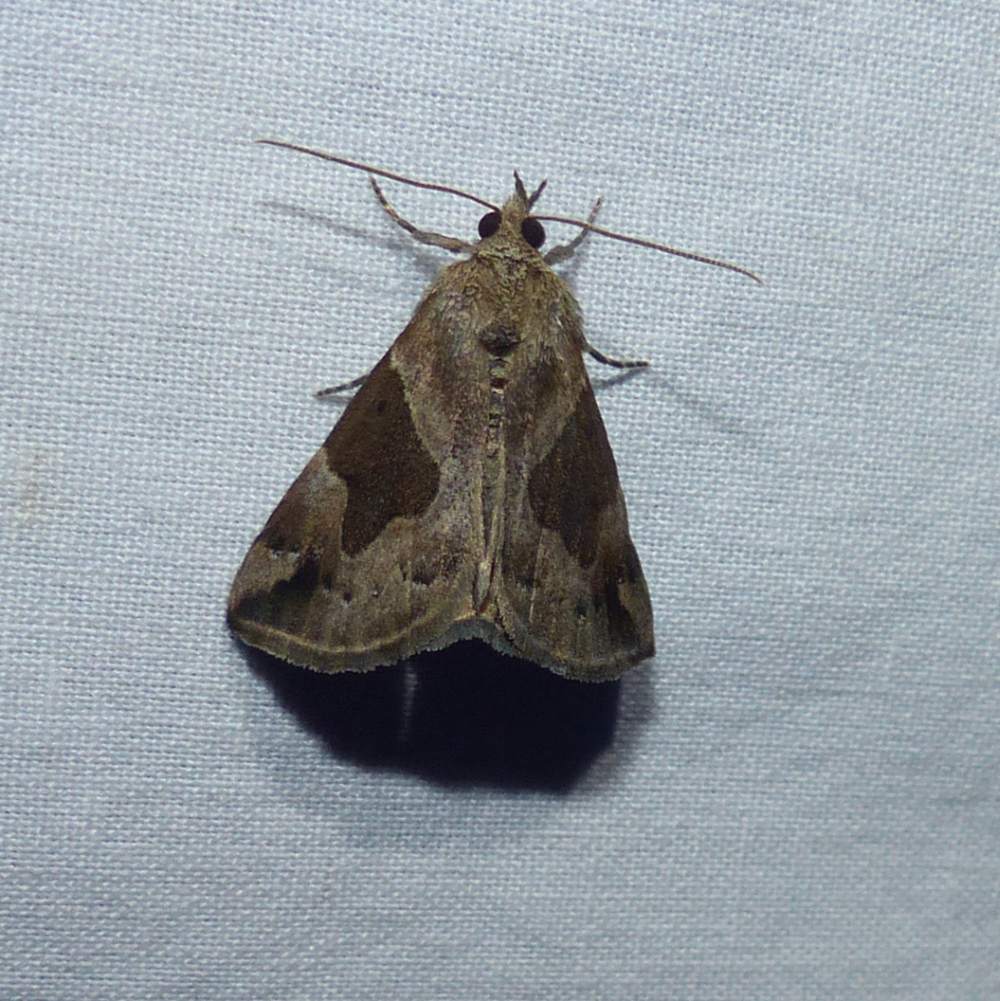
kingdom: Animalia
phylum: Arthropoda
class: Insecta
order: Lepidoptera
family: Erebidae
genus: Hypena
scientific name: Hypena manalis
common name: Flowing-line bomolocha moth
